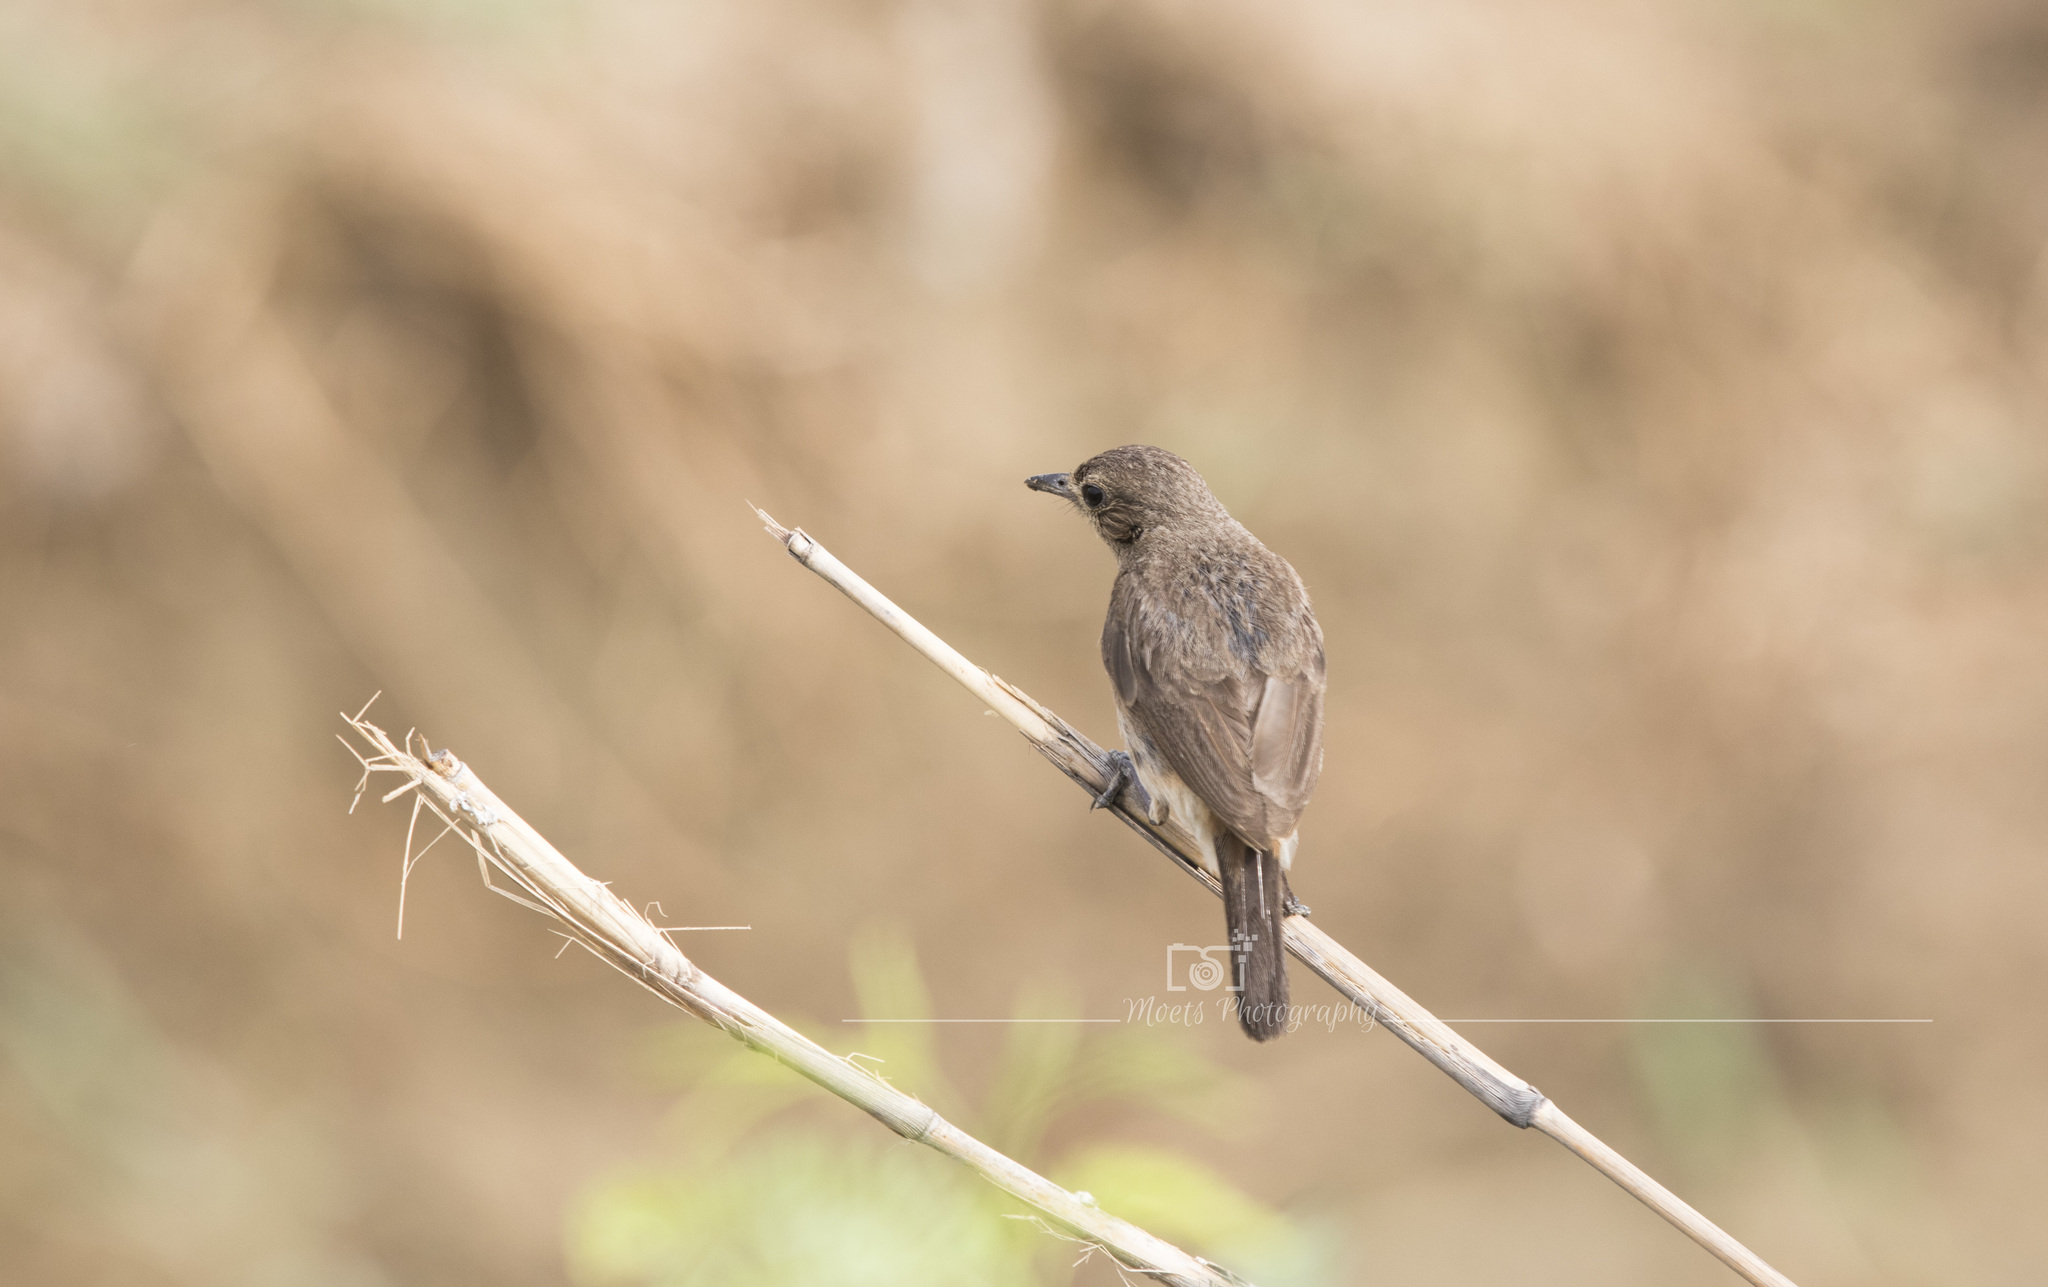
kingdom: Animalia
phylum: Chordata
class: Aves
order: Passeriformes
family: Muscicapidae
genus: Saxicola
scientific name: Saxicola caprata
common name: Pied bush chat
